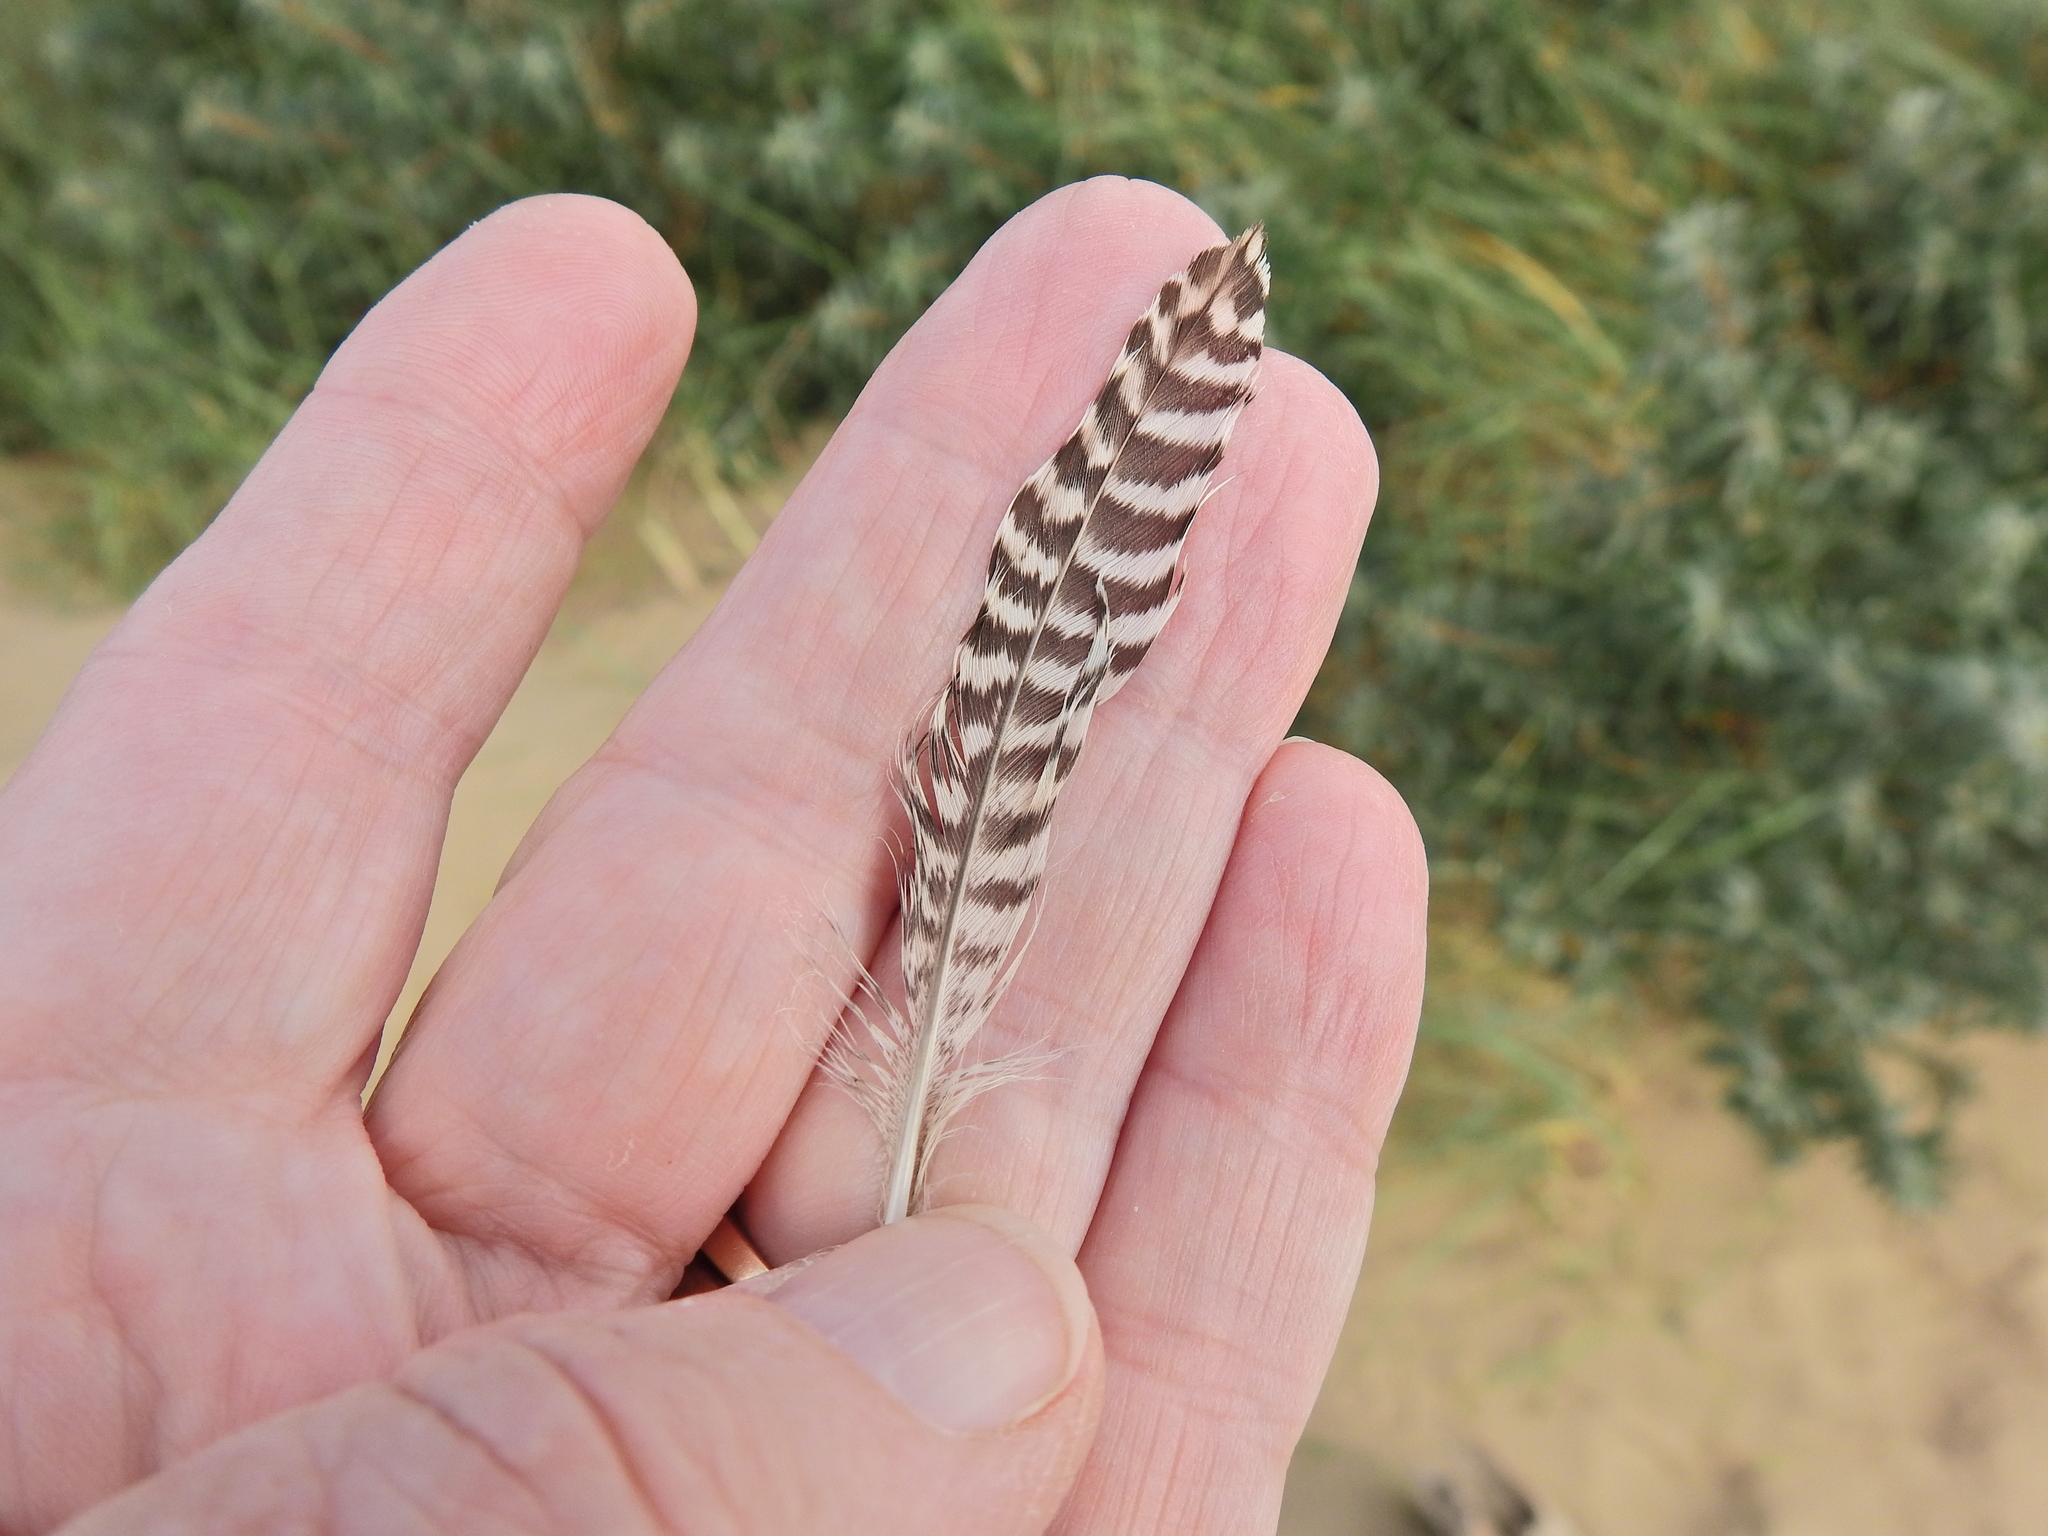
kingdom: Animalia
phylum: Chordata
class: Aves
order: Charadriiformes
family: Scolopacidae
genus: Tringa
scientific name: Tringa totanus
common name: Common redshank
